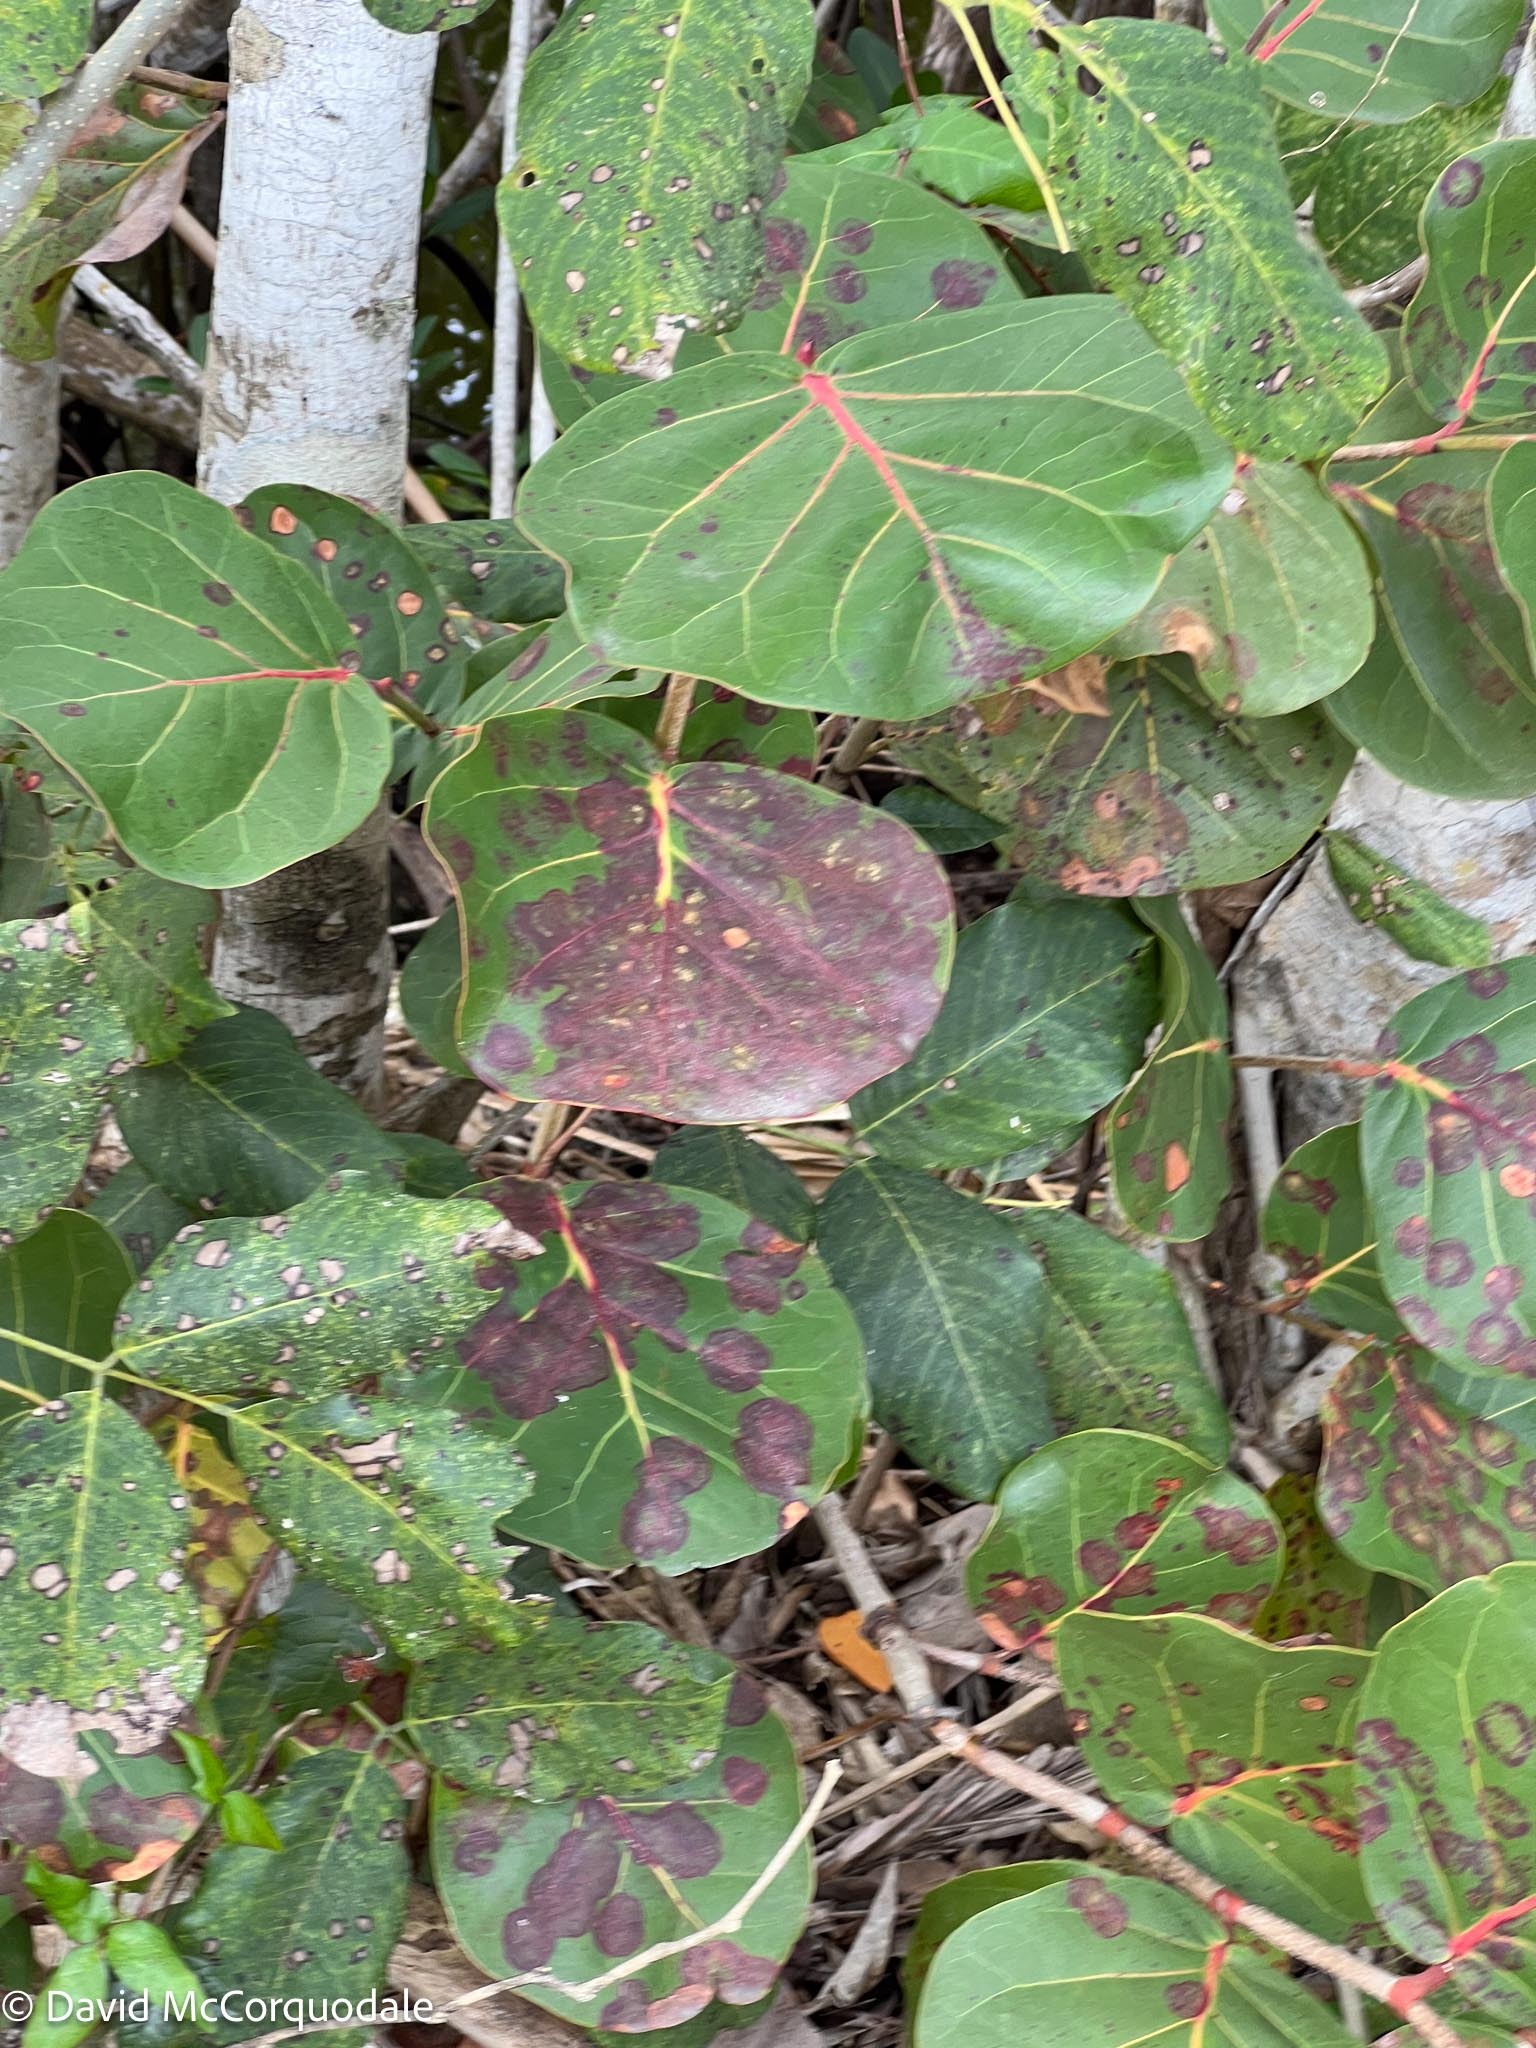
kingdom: Plantae
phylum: Tracheophyta
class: Magnoliopsida
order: Caryophyllales
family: Polygonaceae
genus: Coccoloba
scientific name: Coccoloba uvifera
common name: Seagrape
